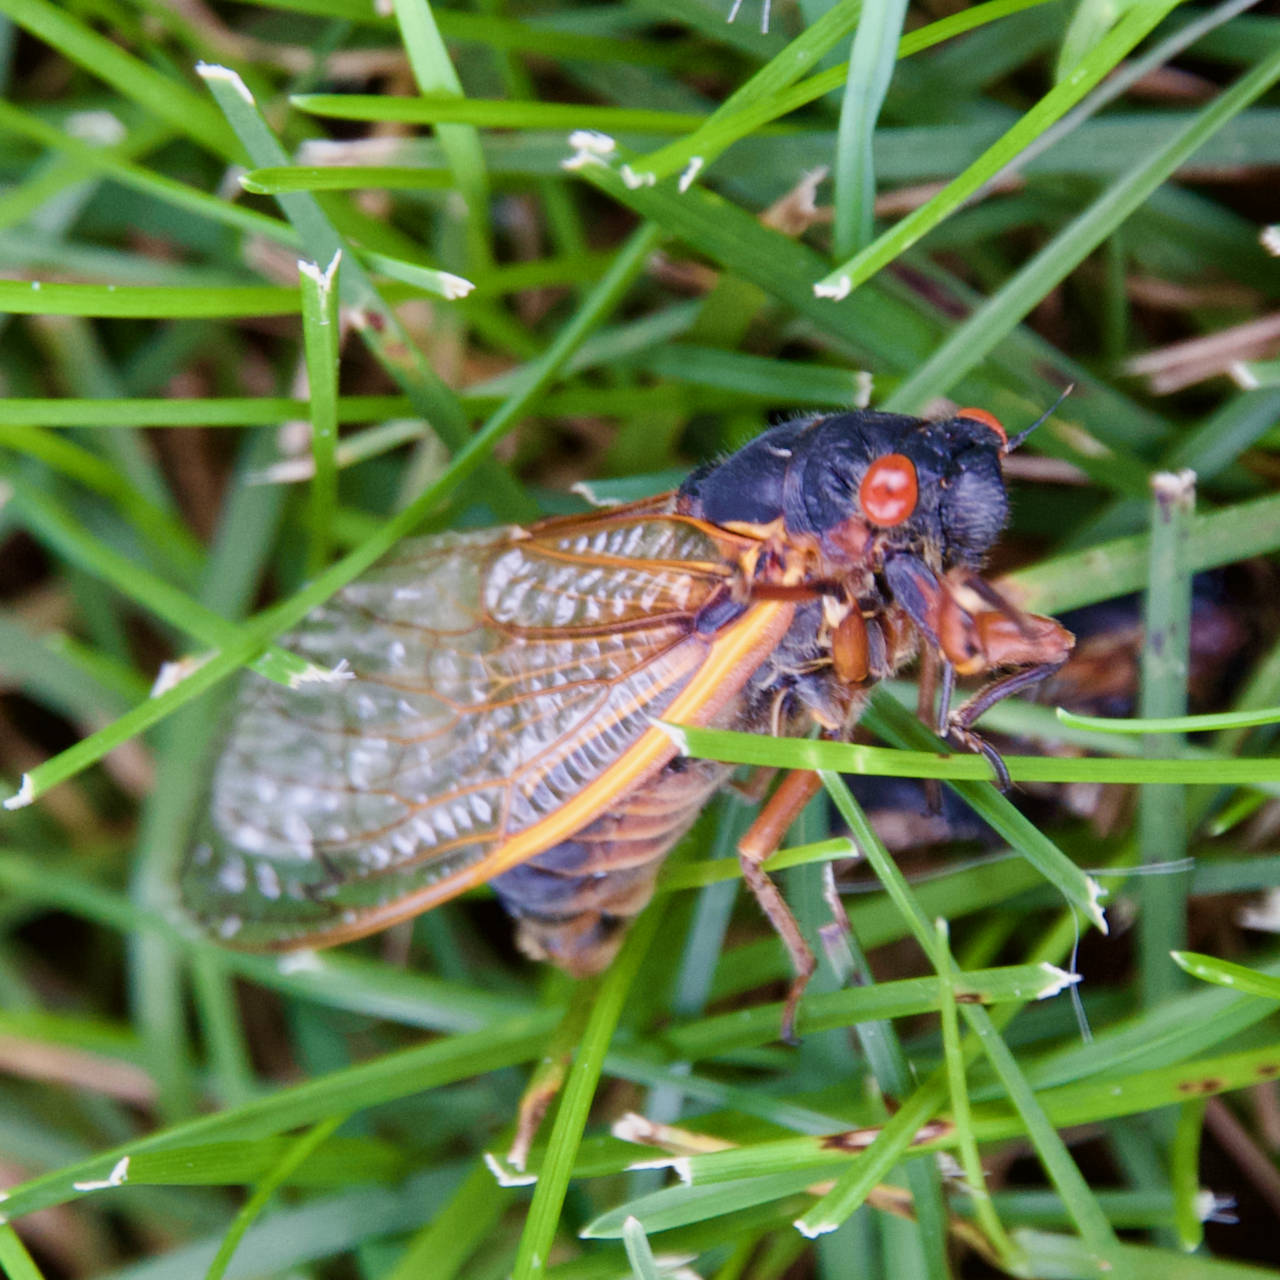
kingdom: Animalia
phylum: Arthropoda
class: Insecta
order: Hemiptera
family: Cicadidae
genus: Magicicada
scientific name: Magicicada septendecim
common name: Periodical cicada
